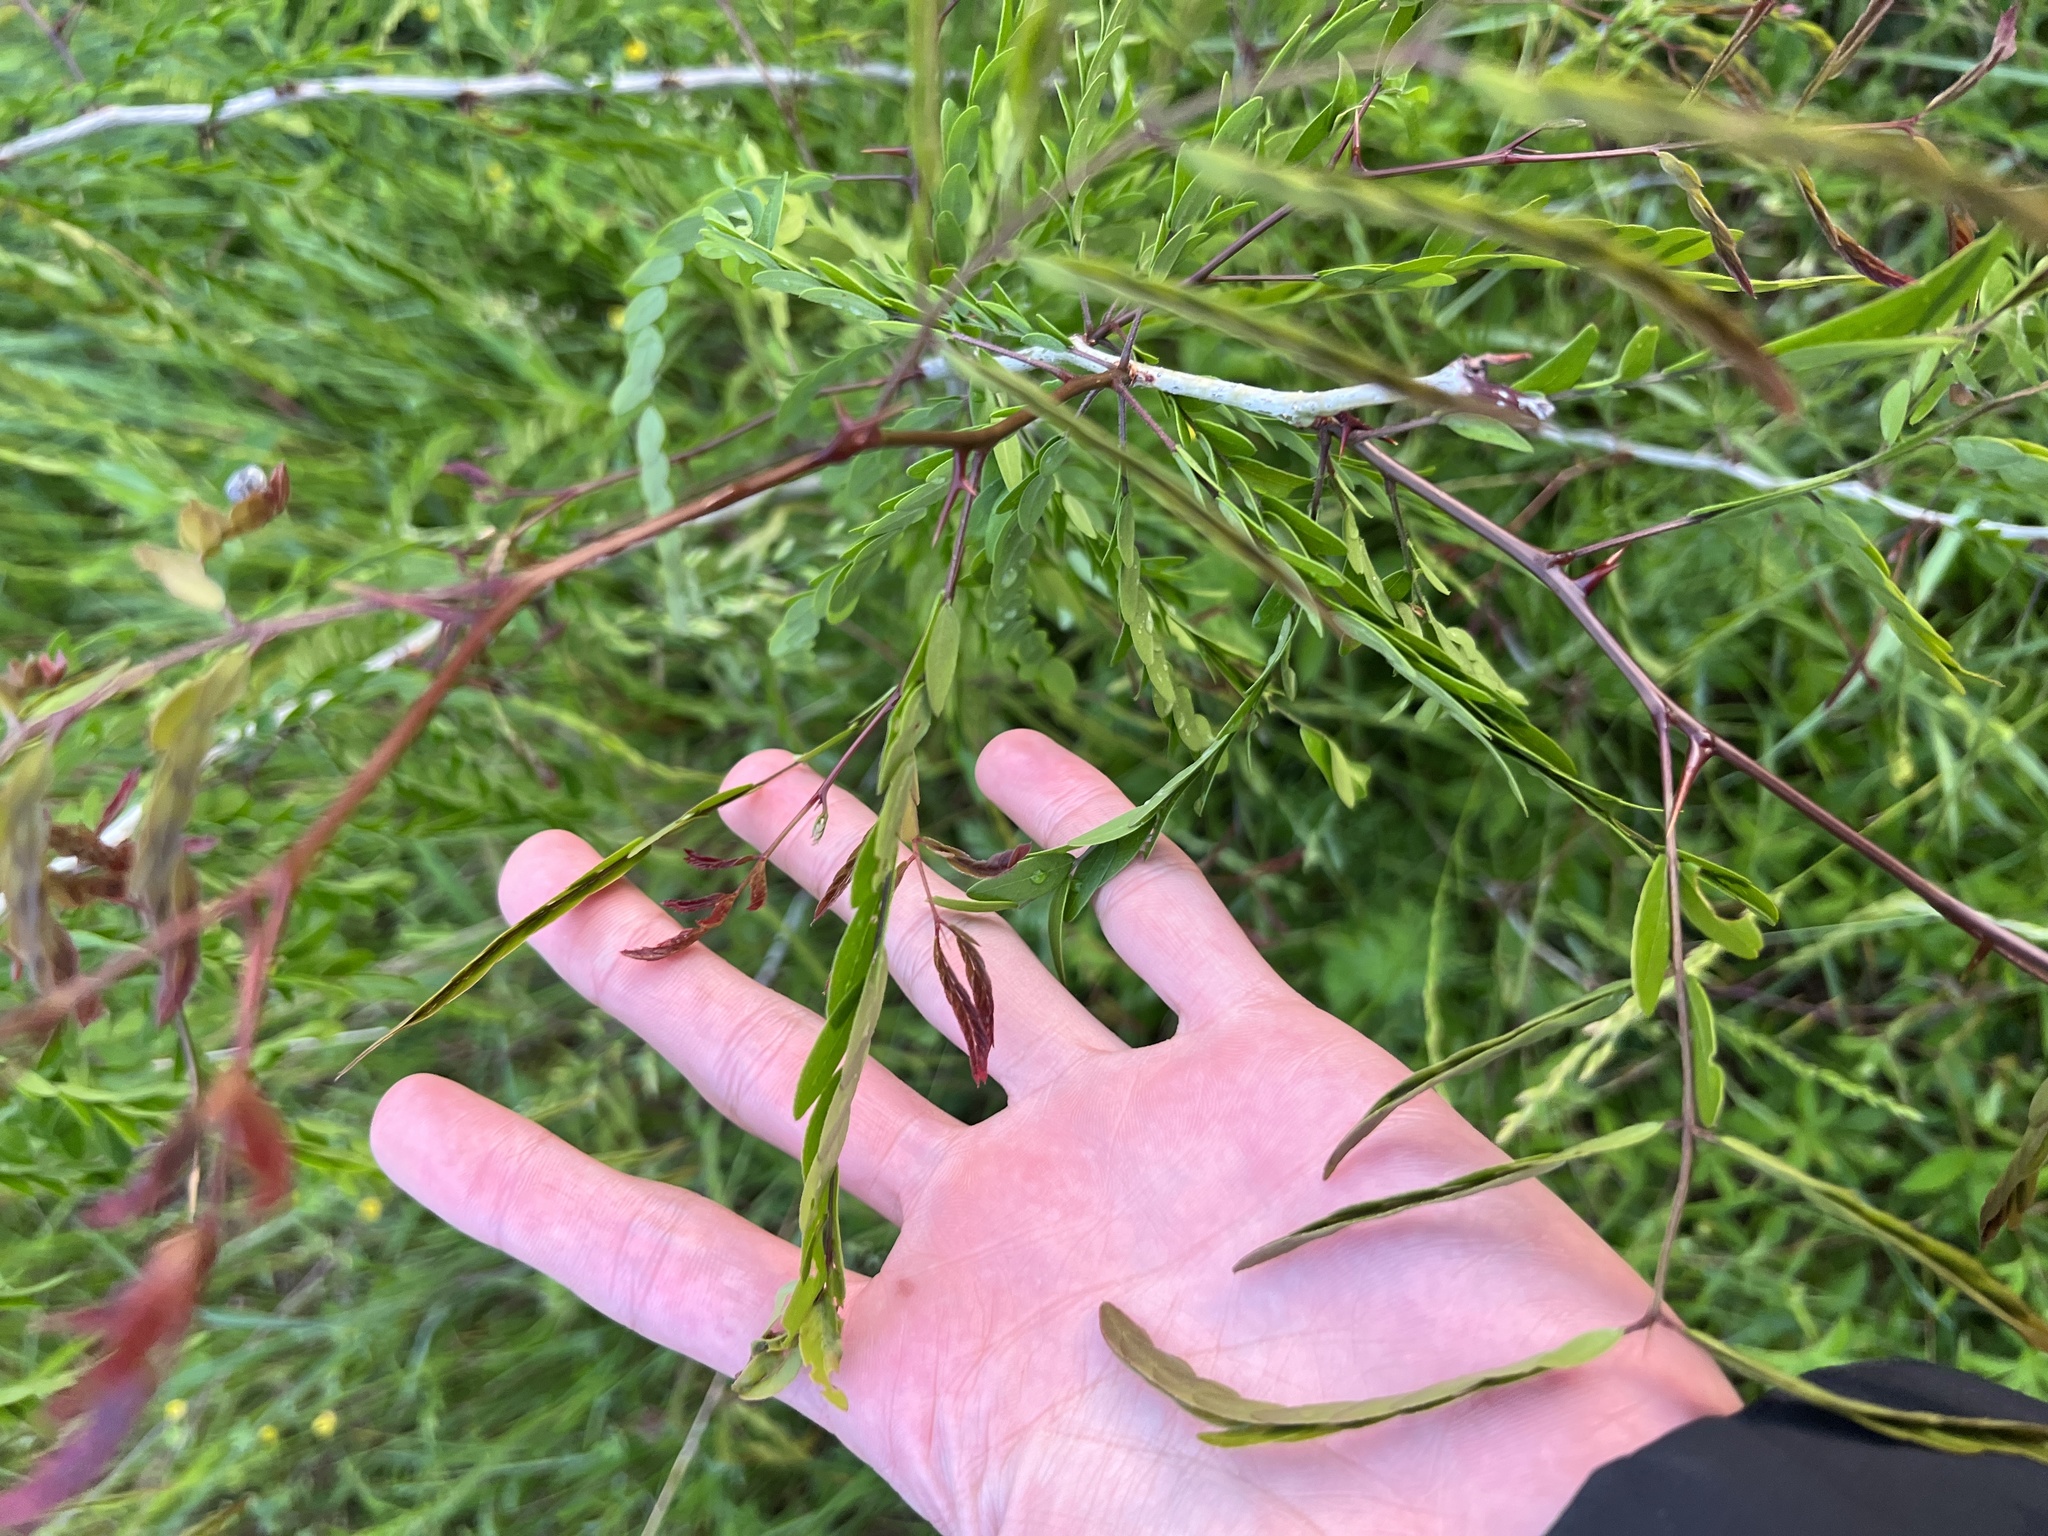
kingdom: Plantae
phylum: Tracheophyta
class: Magnoliopsida
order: Fabales
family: Fabaceae
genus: Gleditsia
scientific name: Gleditsia triacanthos
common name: Common honeylocust
